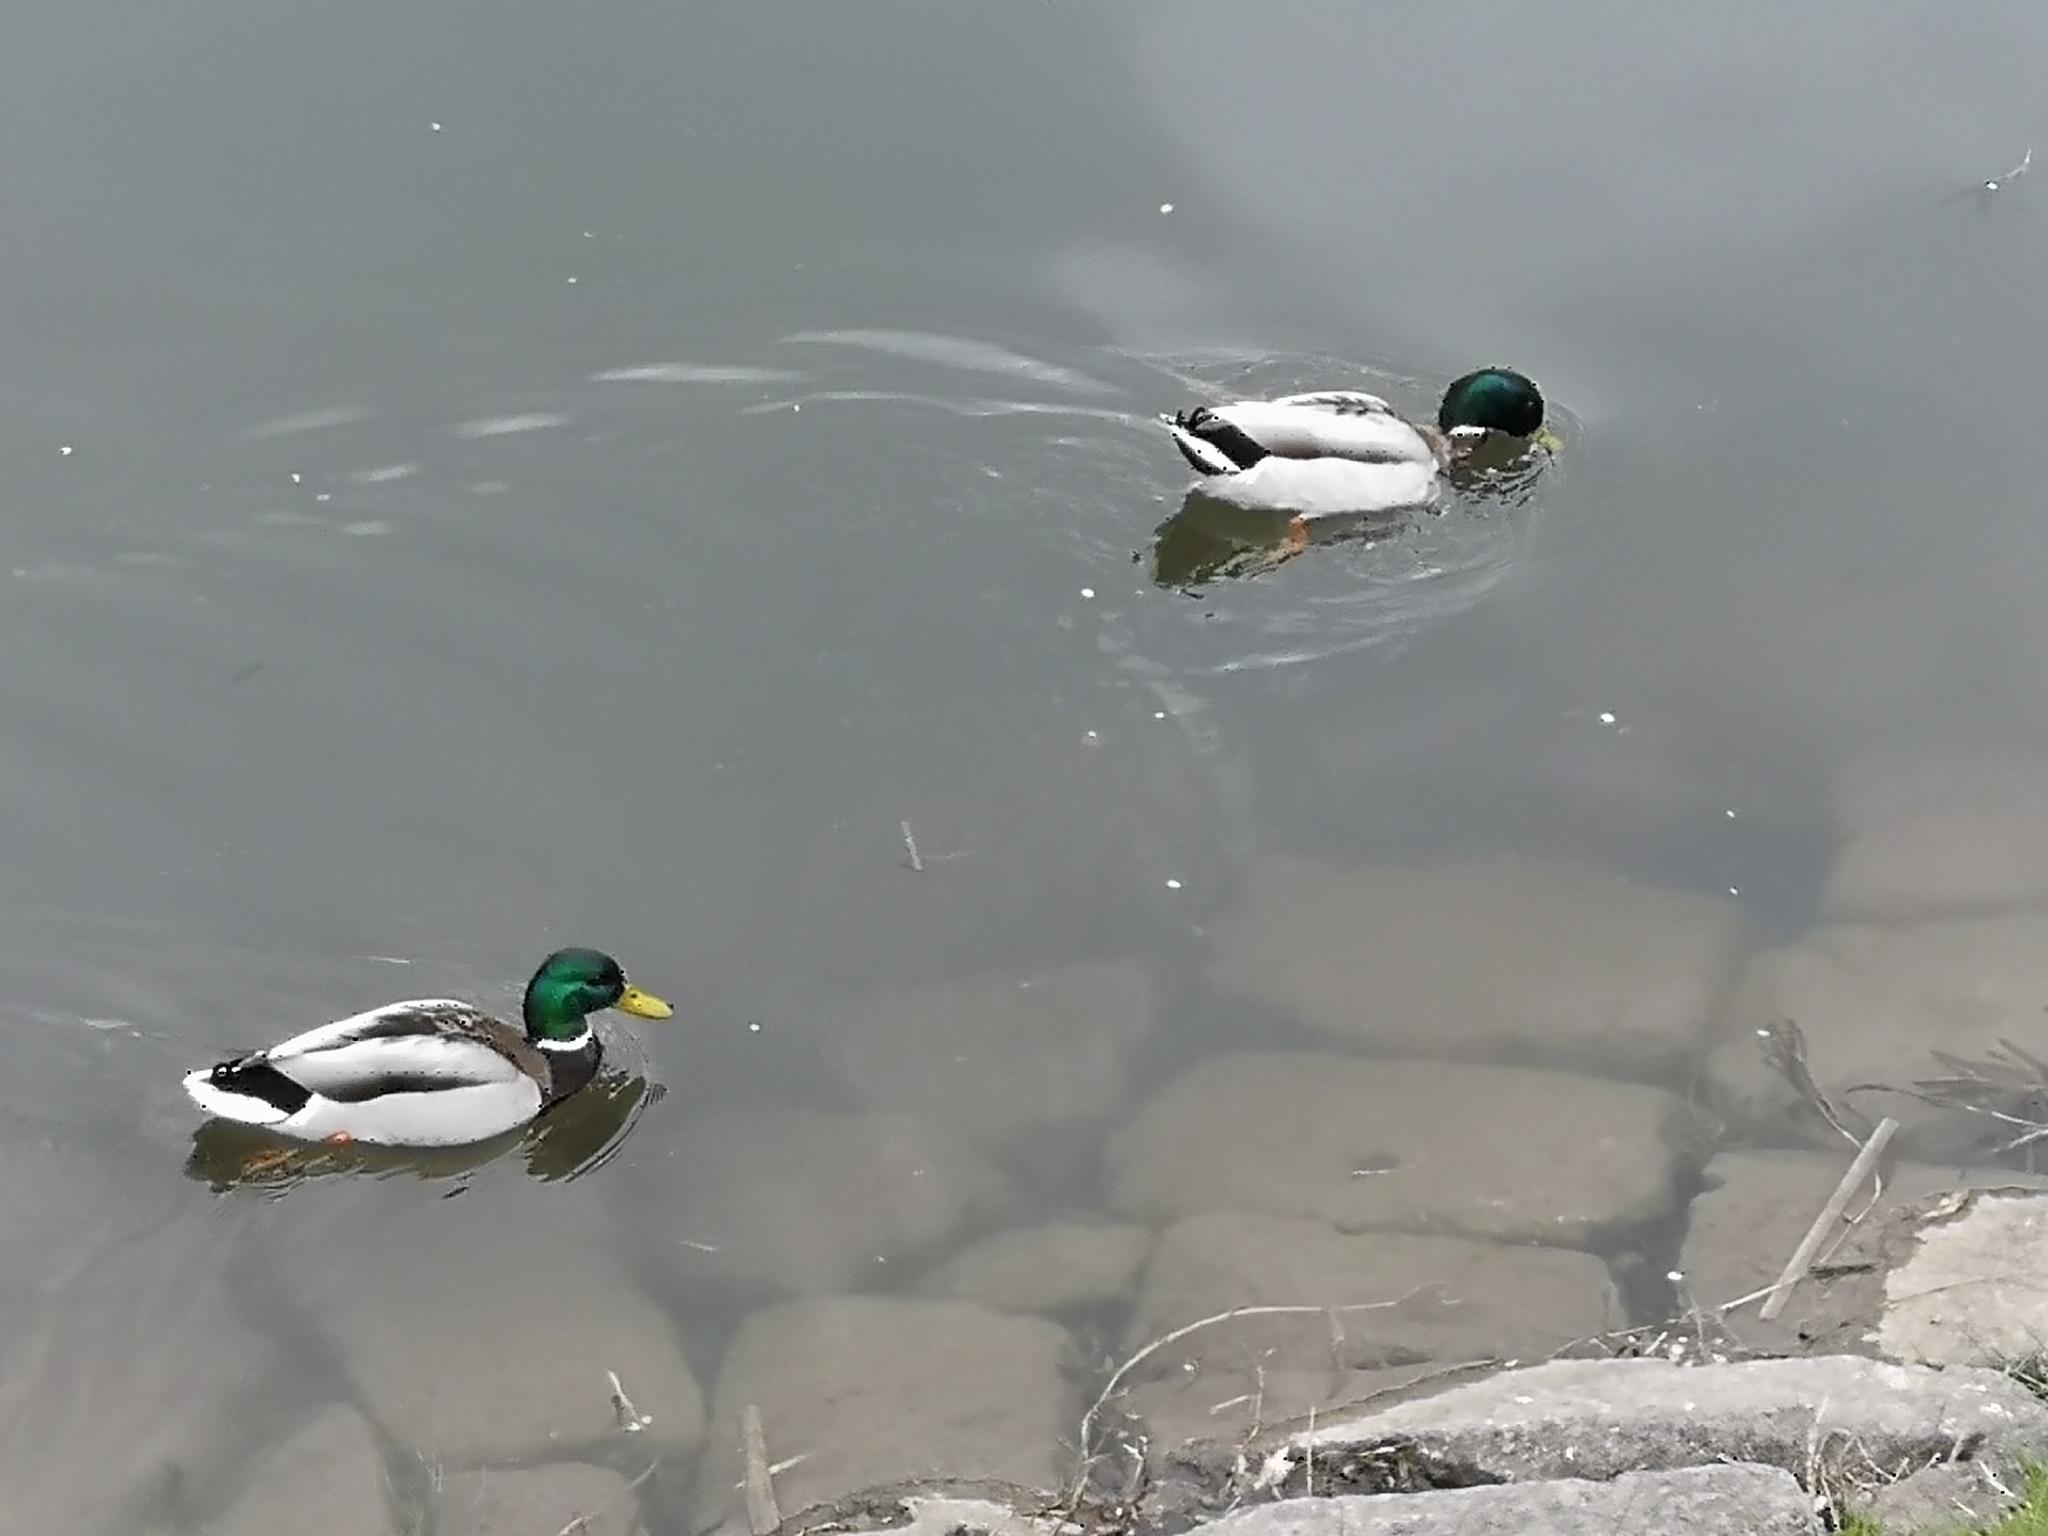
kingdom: Animalia
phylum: Chordata
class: Aves
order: Anseriformes
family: Anatidae
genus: Anas
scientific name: Anas platyrhynchos
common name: Mallard
